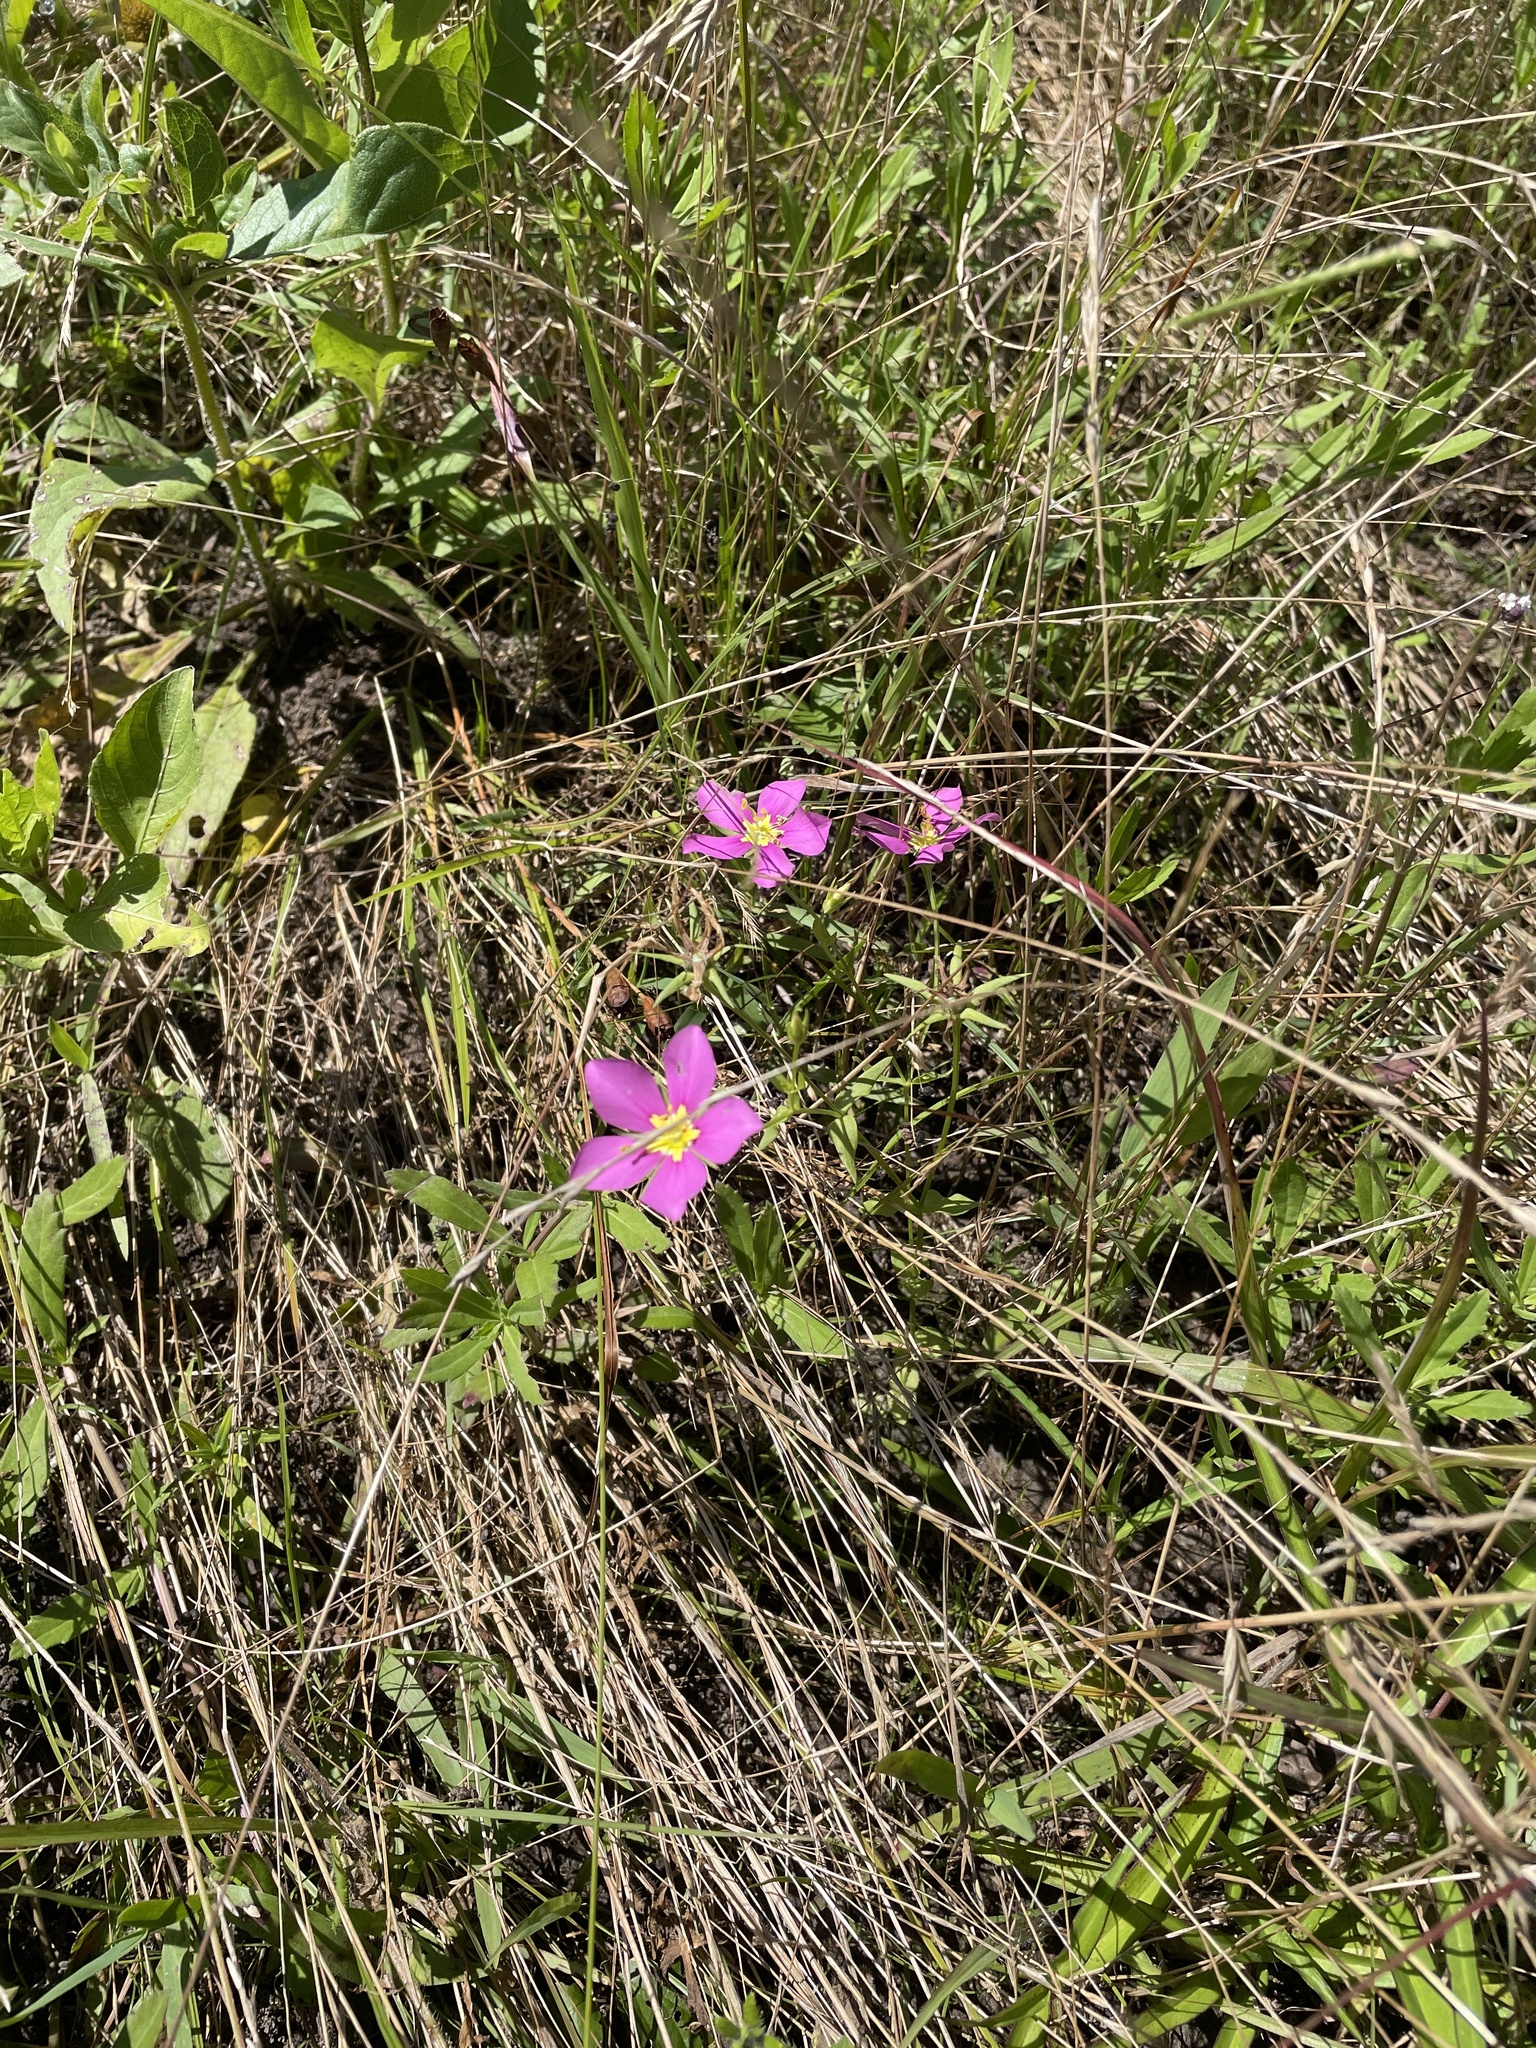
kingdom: Plantae
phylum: Tracheophyta
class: Magnoliopsida
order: Gentianales
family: Gentianaceae
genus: Sabatia
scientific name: Sabatia campestris
